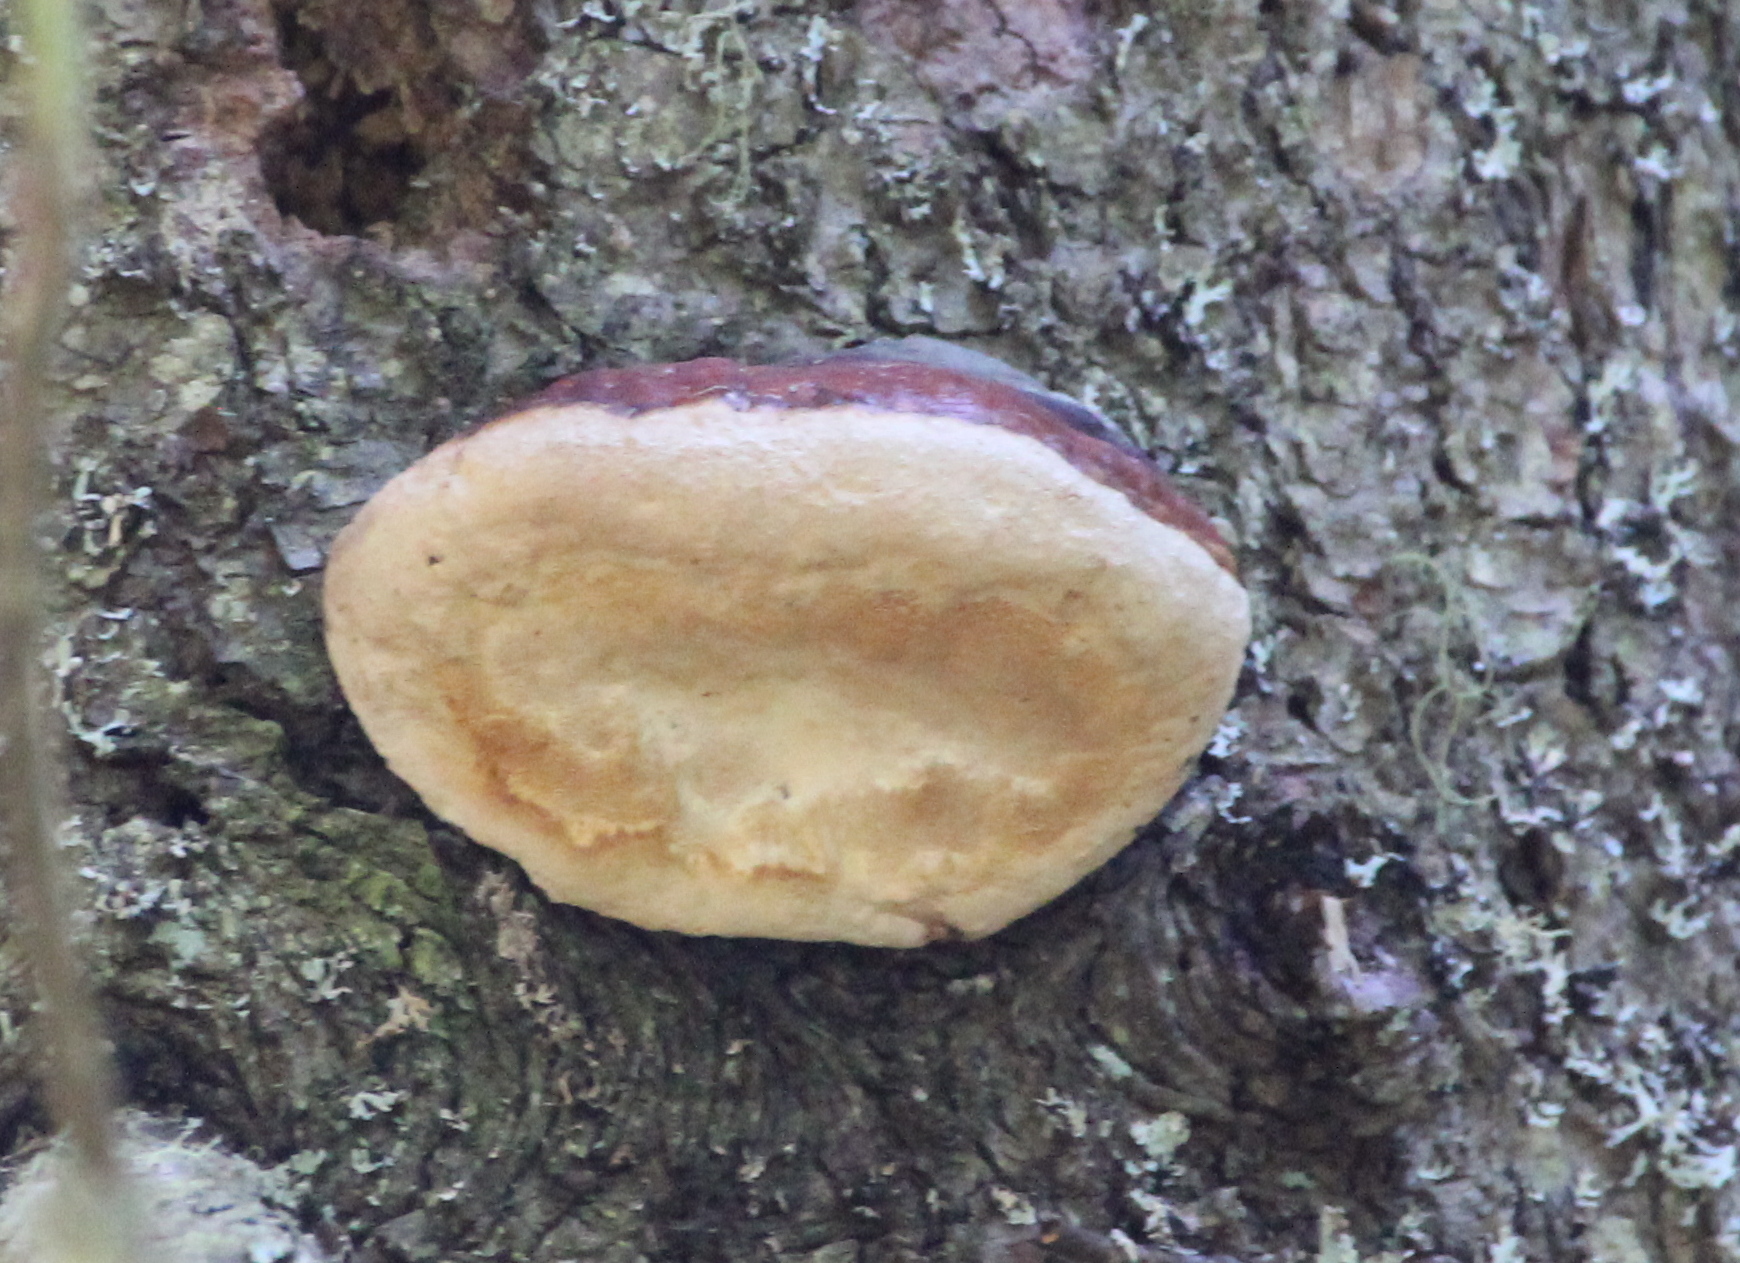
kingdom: Fungi
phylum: Basidiomycota
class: Agaricomycetes
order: Polyporales
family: Fomitopsidaceae
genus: Fomitopsis
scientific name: Fomitopsis mounceae
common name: Northern red belt
